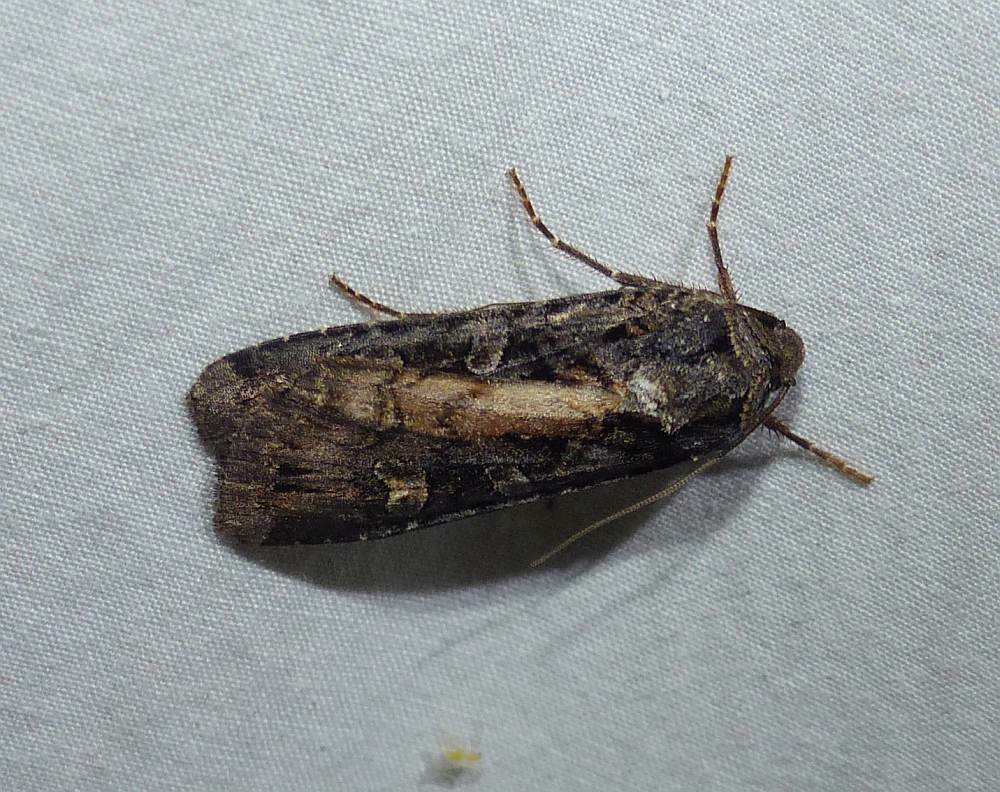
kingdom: Animalia
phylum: Arthropoda
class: Insecta
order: Lepidoptera
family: Noctuidae
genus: Actebia
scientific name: Actebia fennica
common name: Eversmann's rustic
